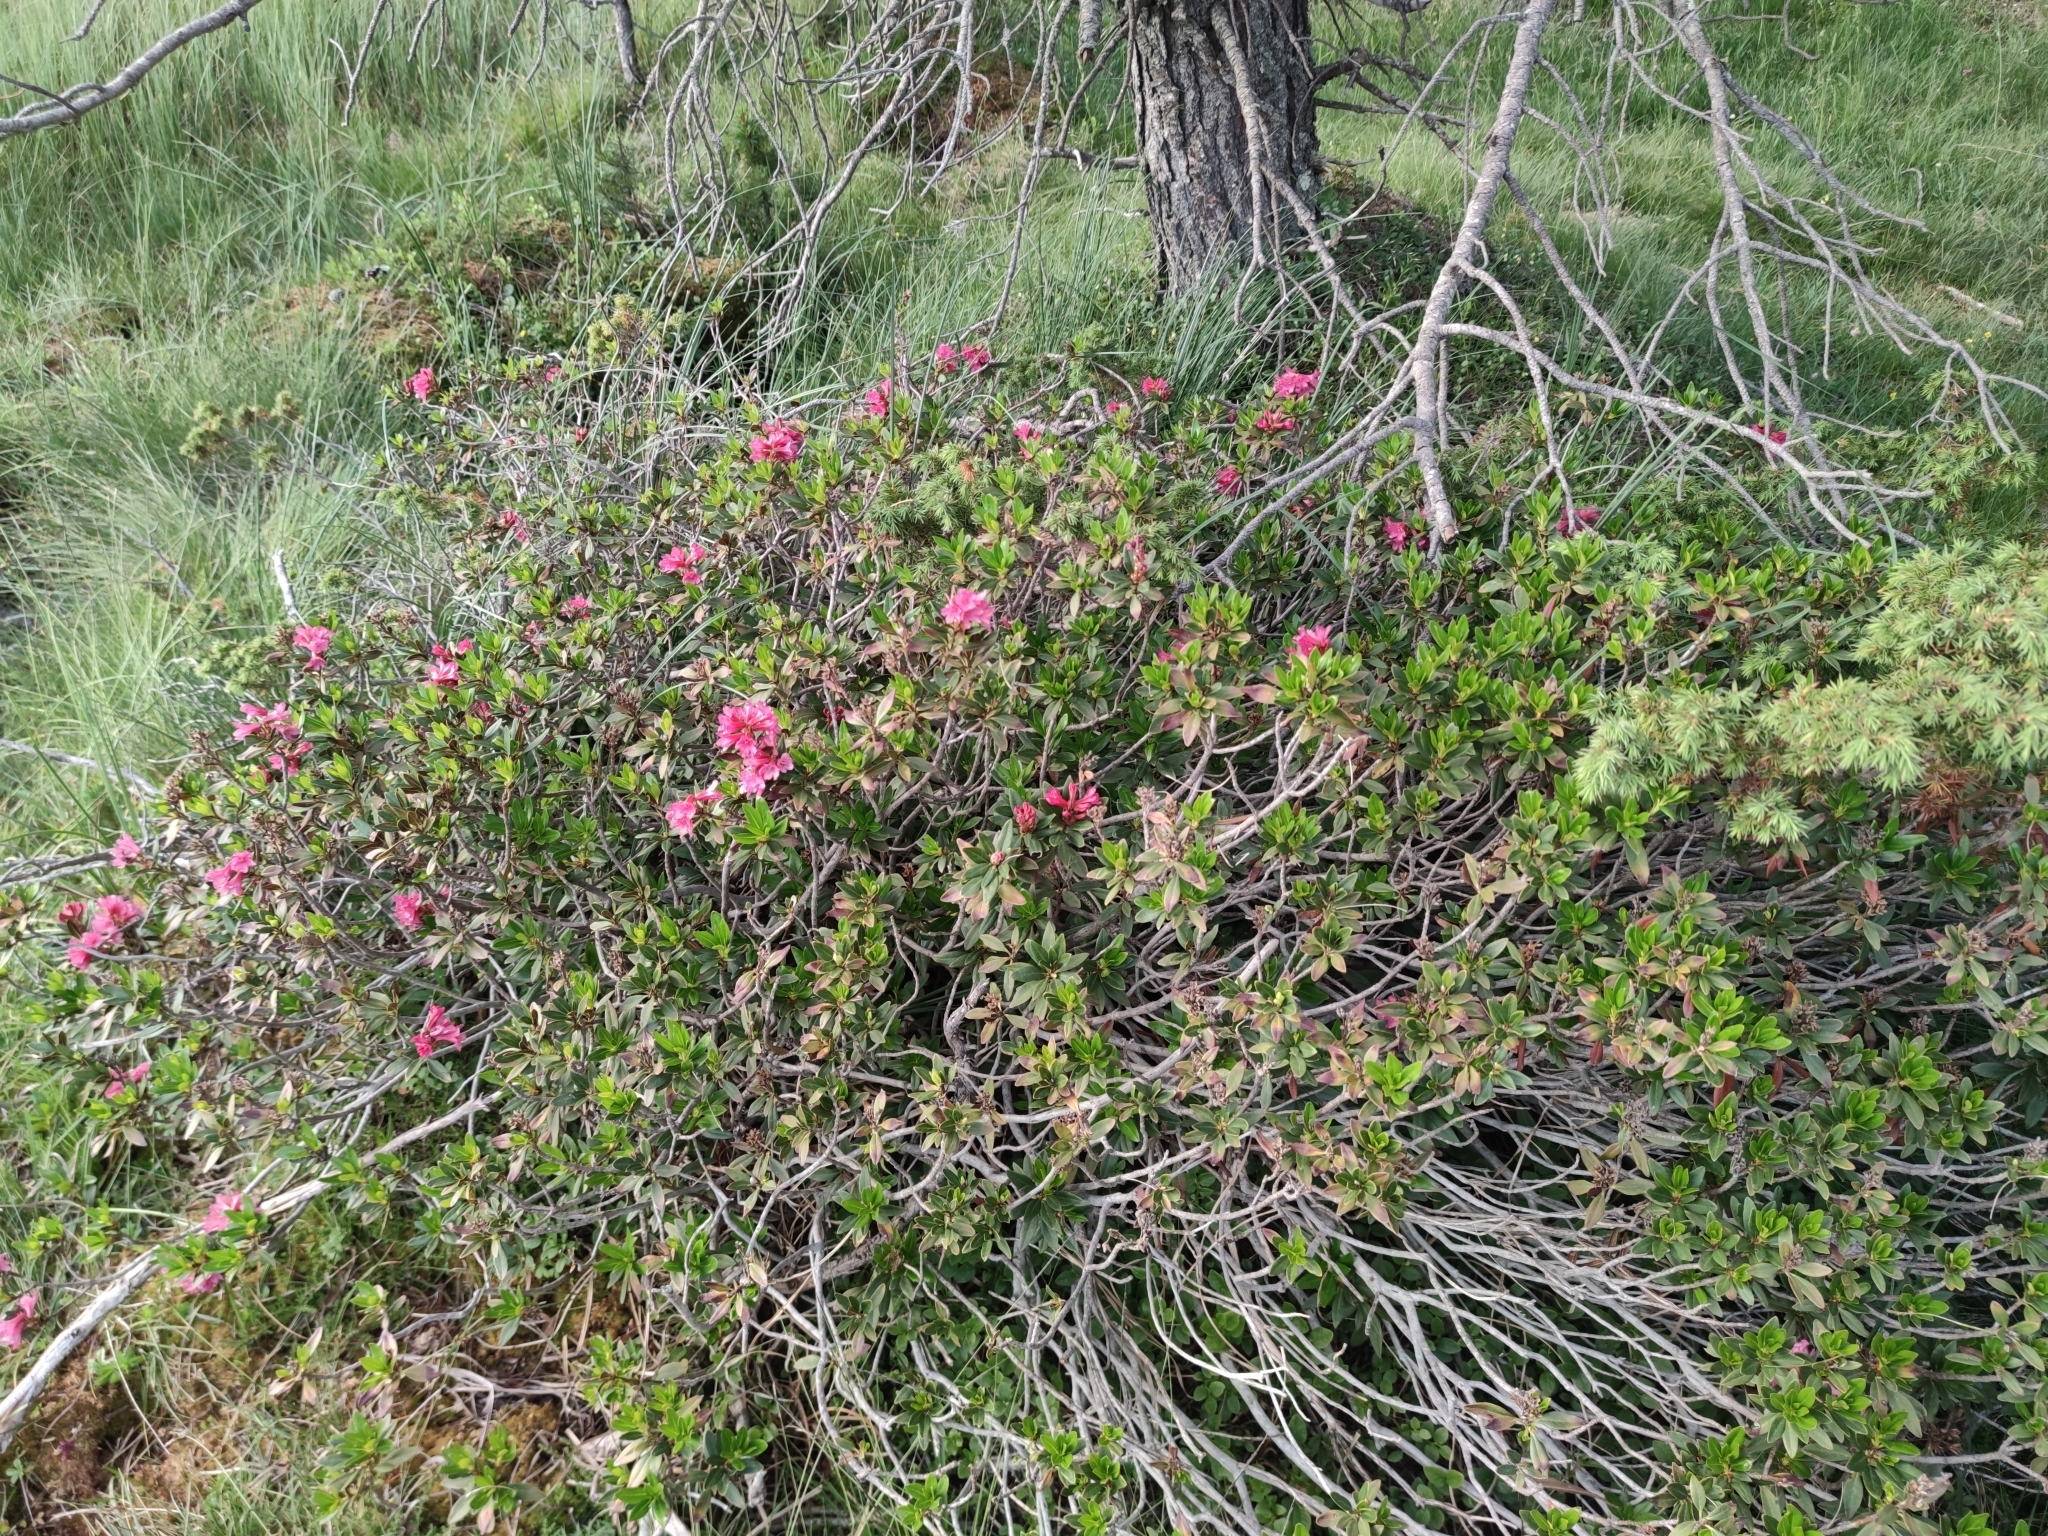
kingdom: Plantae
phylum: Tracheophyta
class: Magnoliopsida
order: Ericales
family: Ericaceae
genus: Rhododendron
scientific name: Rhododendron ferrugineum
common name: Alpenrose
